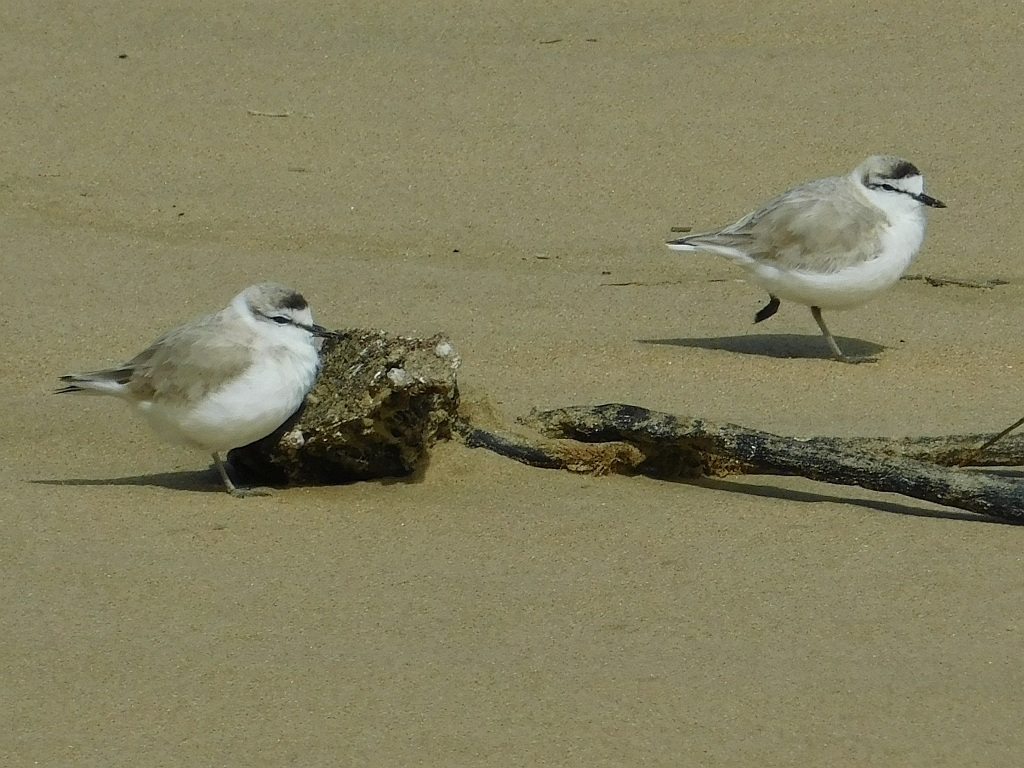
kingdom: Animalia
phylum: Chordata
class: Aves
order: Charadriiformes
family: Charadriidae
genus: Anarhynchus
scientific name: Anarhynchus
